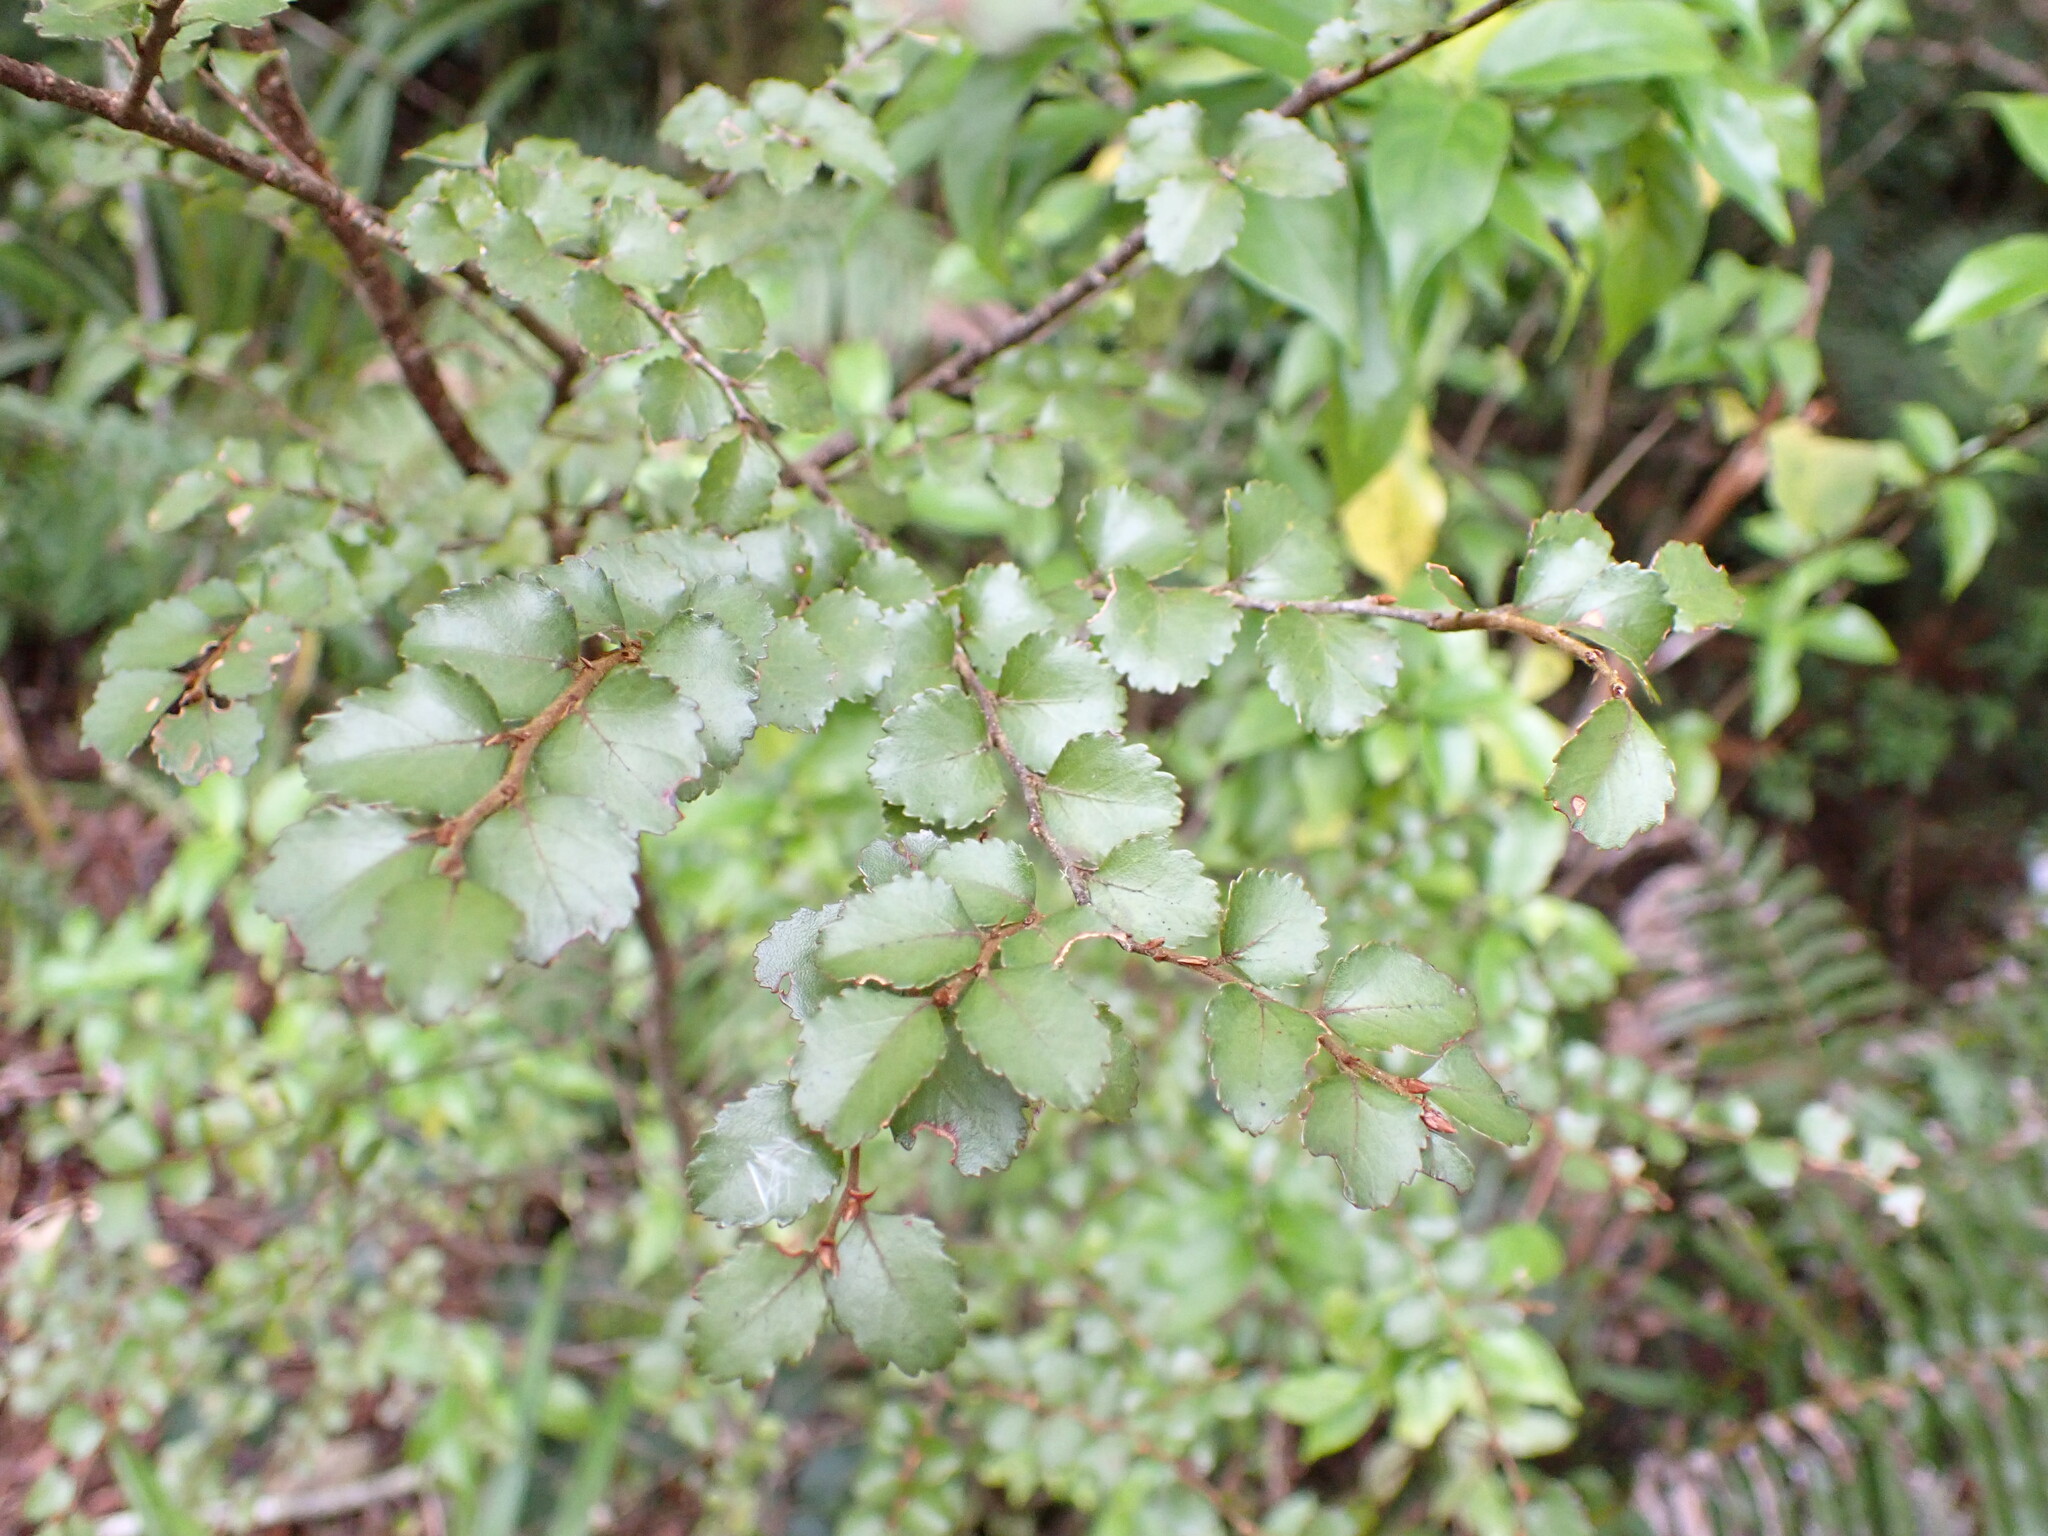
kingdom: Plantae
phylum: Tracheophyta
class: Magnoliopsida
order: Fagales
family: Nothofagaceae
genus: Nothofagus
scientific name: Nothofagus menziesii
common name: Silver beech
